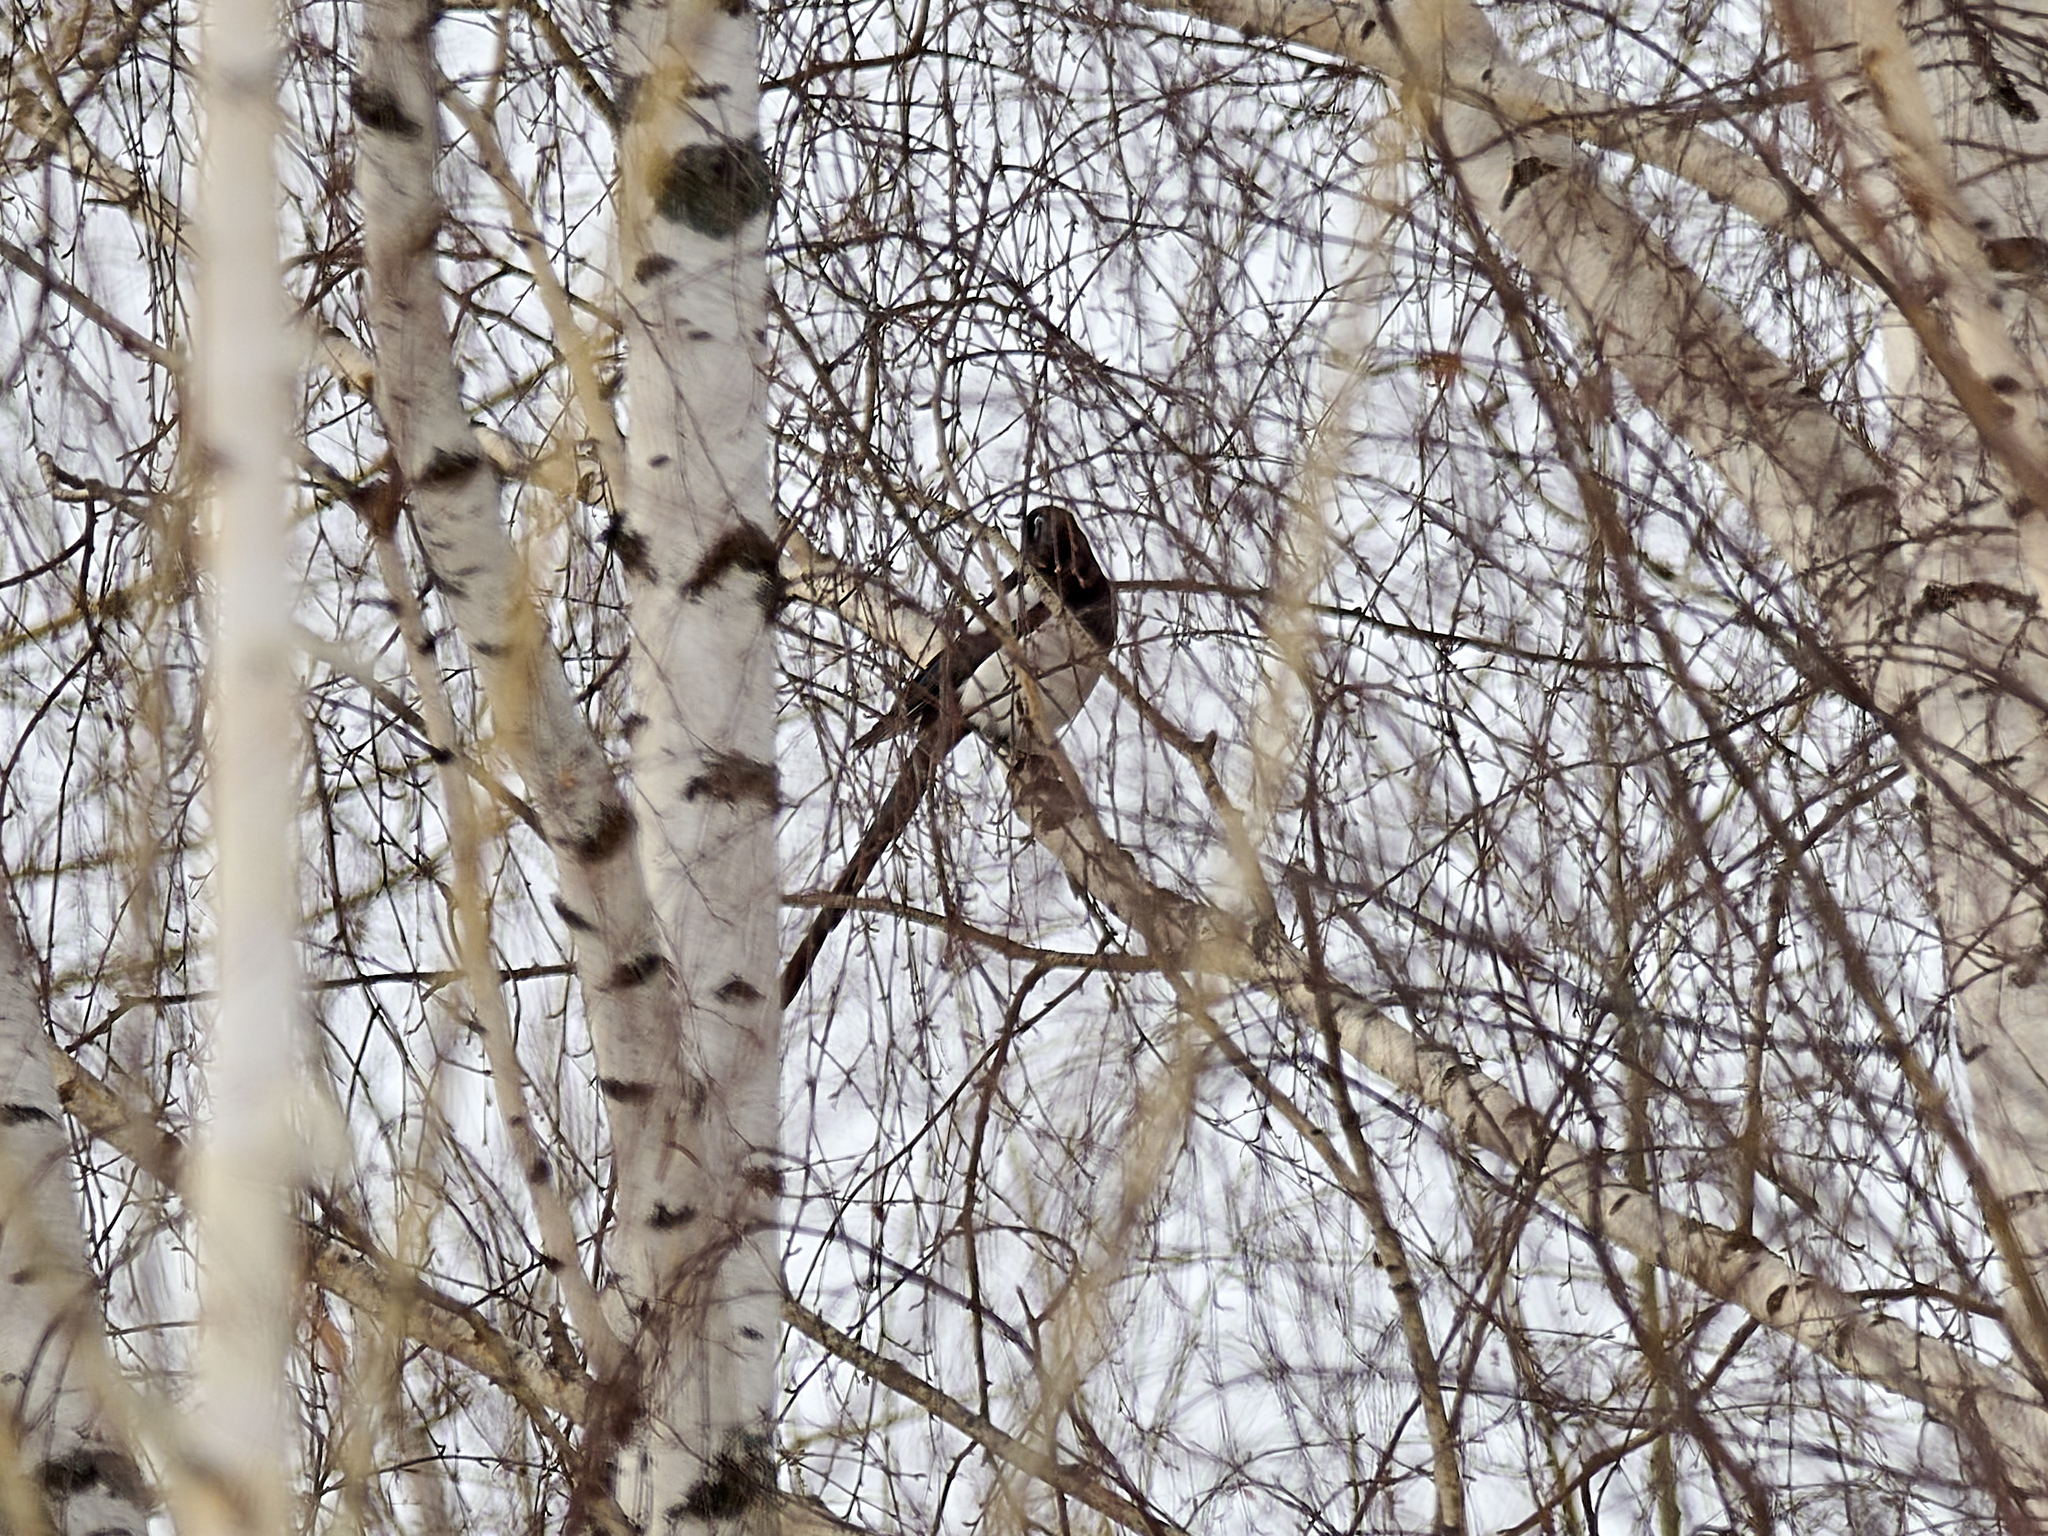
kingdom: Animalia
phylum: Chordata
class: Aves
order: Passeriformes
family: Corvidae
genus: Pica
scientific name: Pica pica
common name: Eurasian magpie
